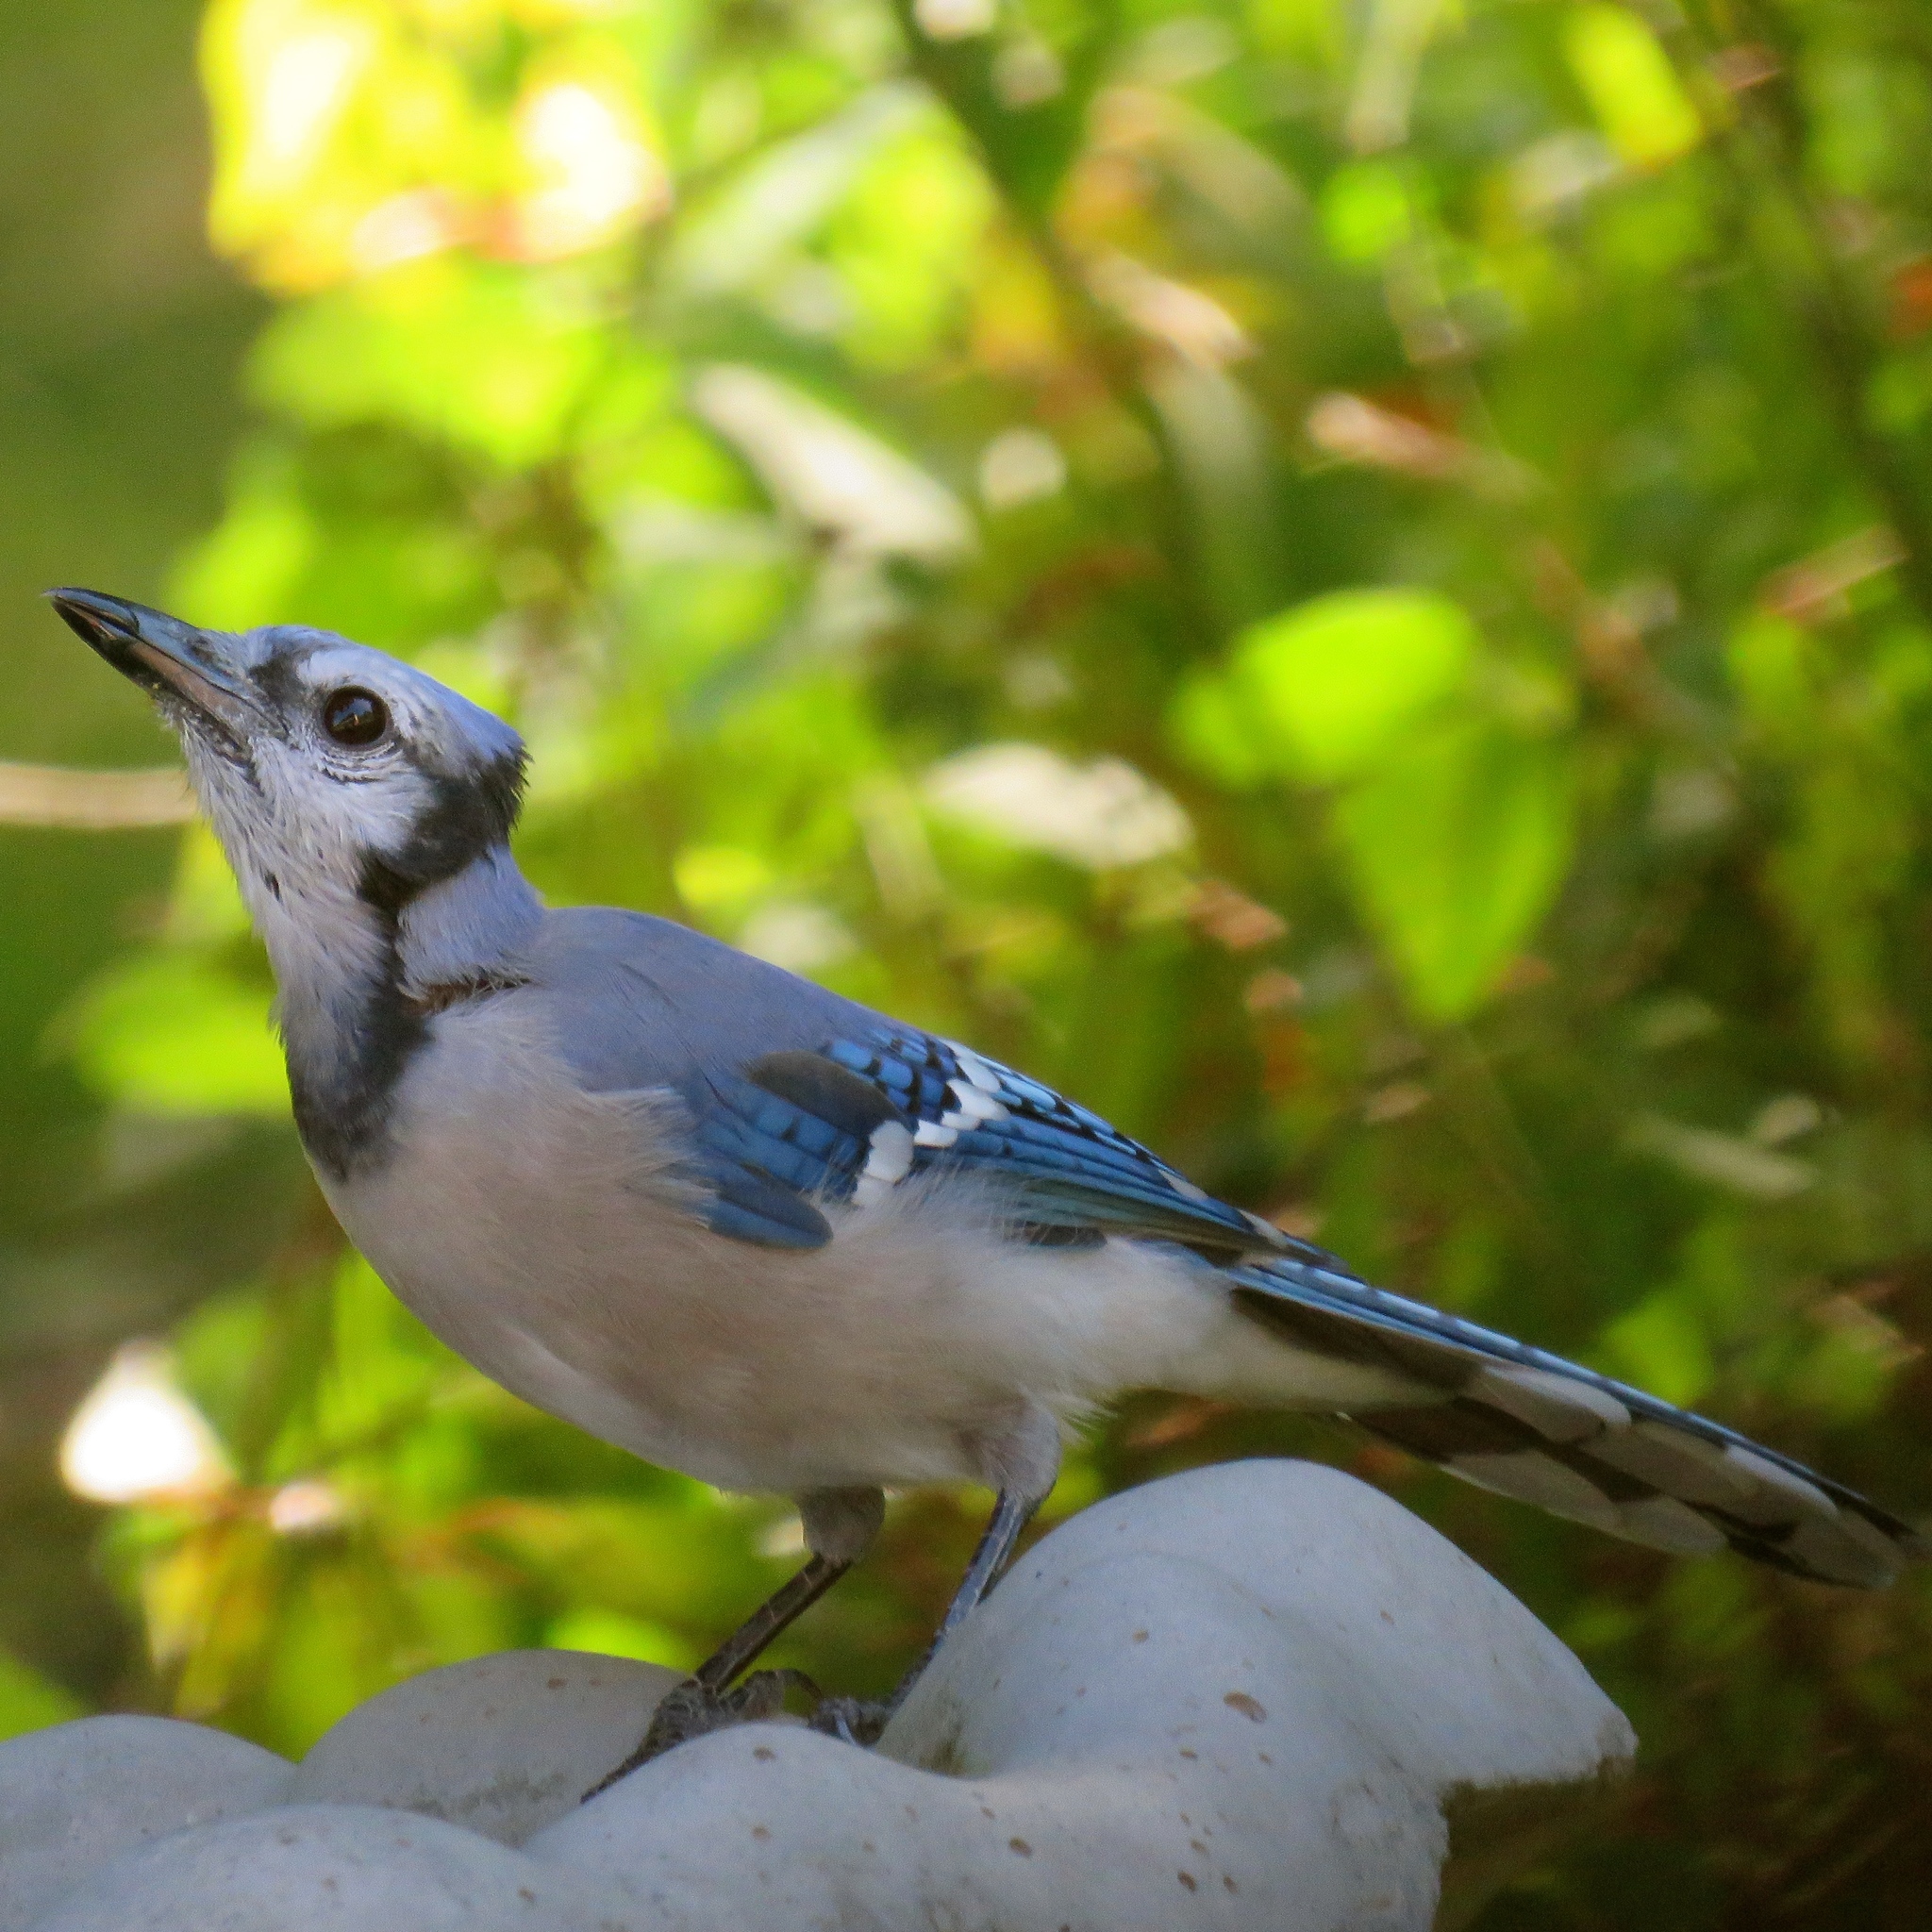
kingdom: Animalia
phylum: Chordata
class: Aves
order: Passeriformes
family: Corvidae
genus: Cyanocitta
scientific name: Cyanocitta cristata
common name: Blue jay
